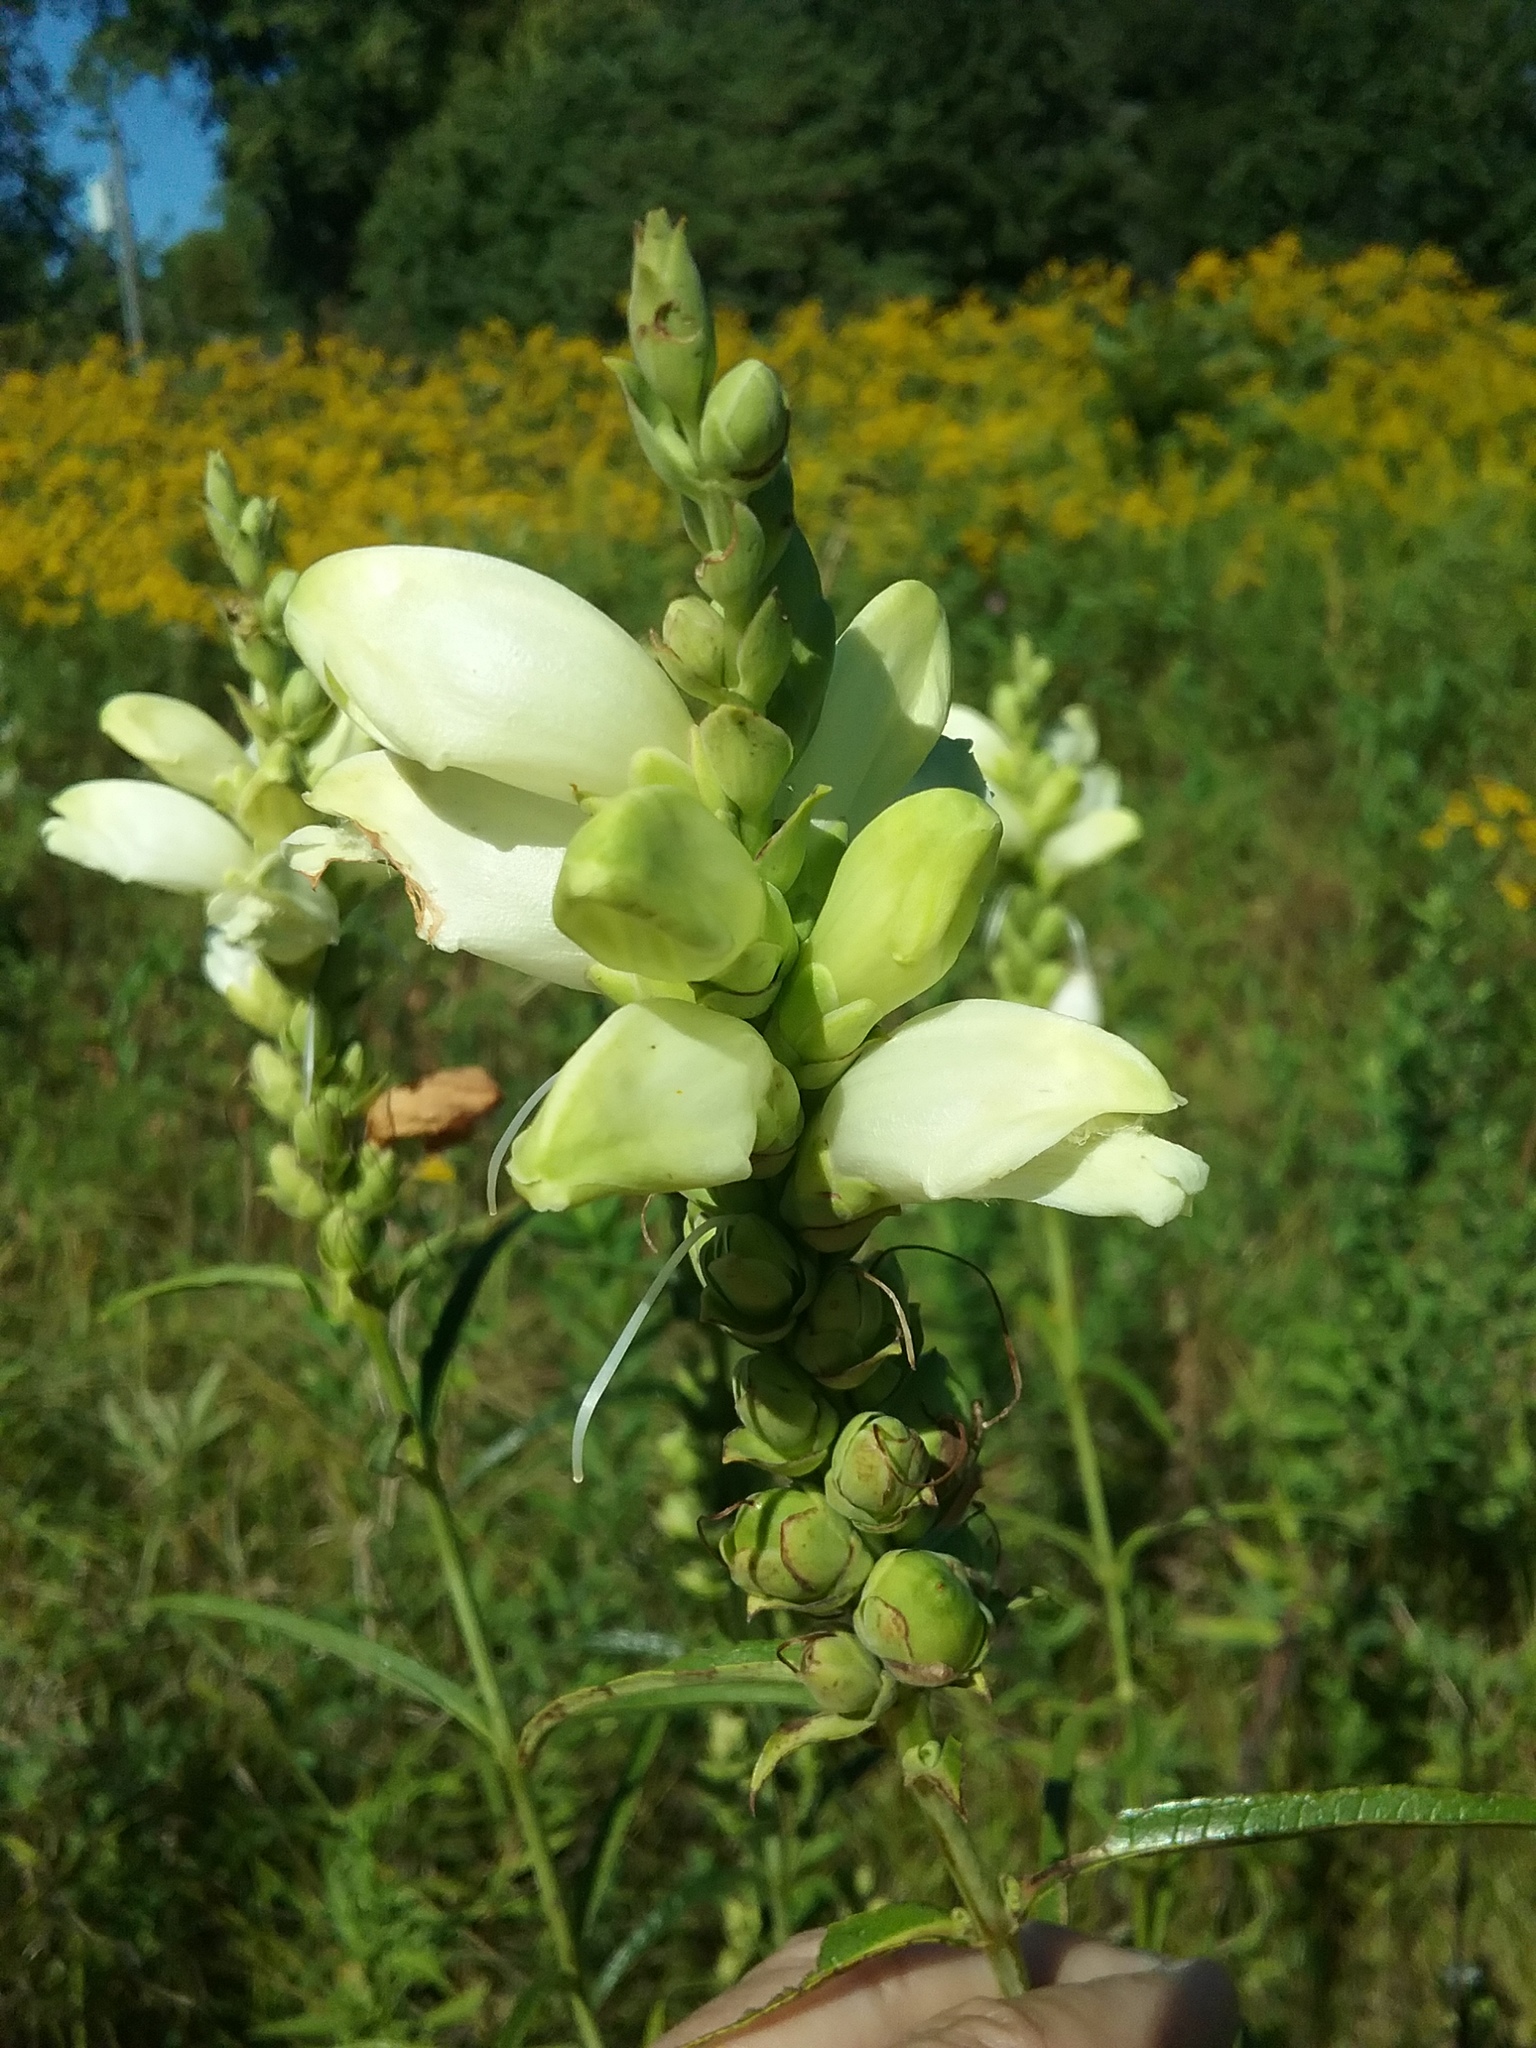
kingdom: Plantae
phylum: Tracheophyta
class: Magnoliopsida
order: Lamiales
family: Plantaginaceae
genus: Chelone
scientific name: Chelone glabra
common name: Snakehead
